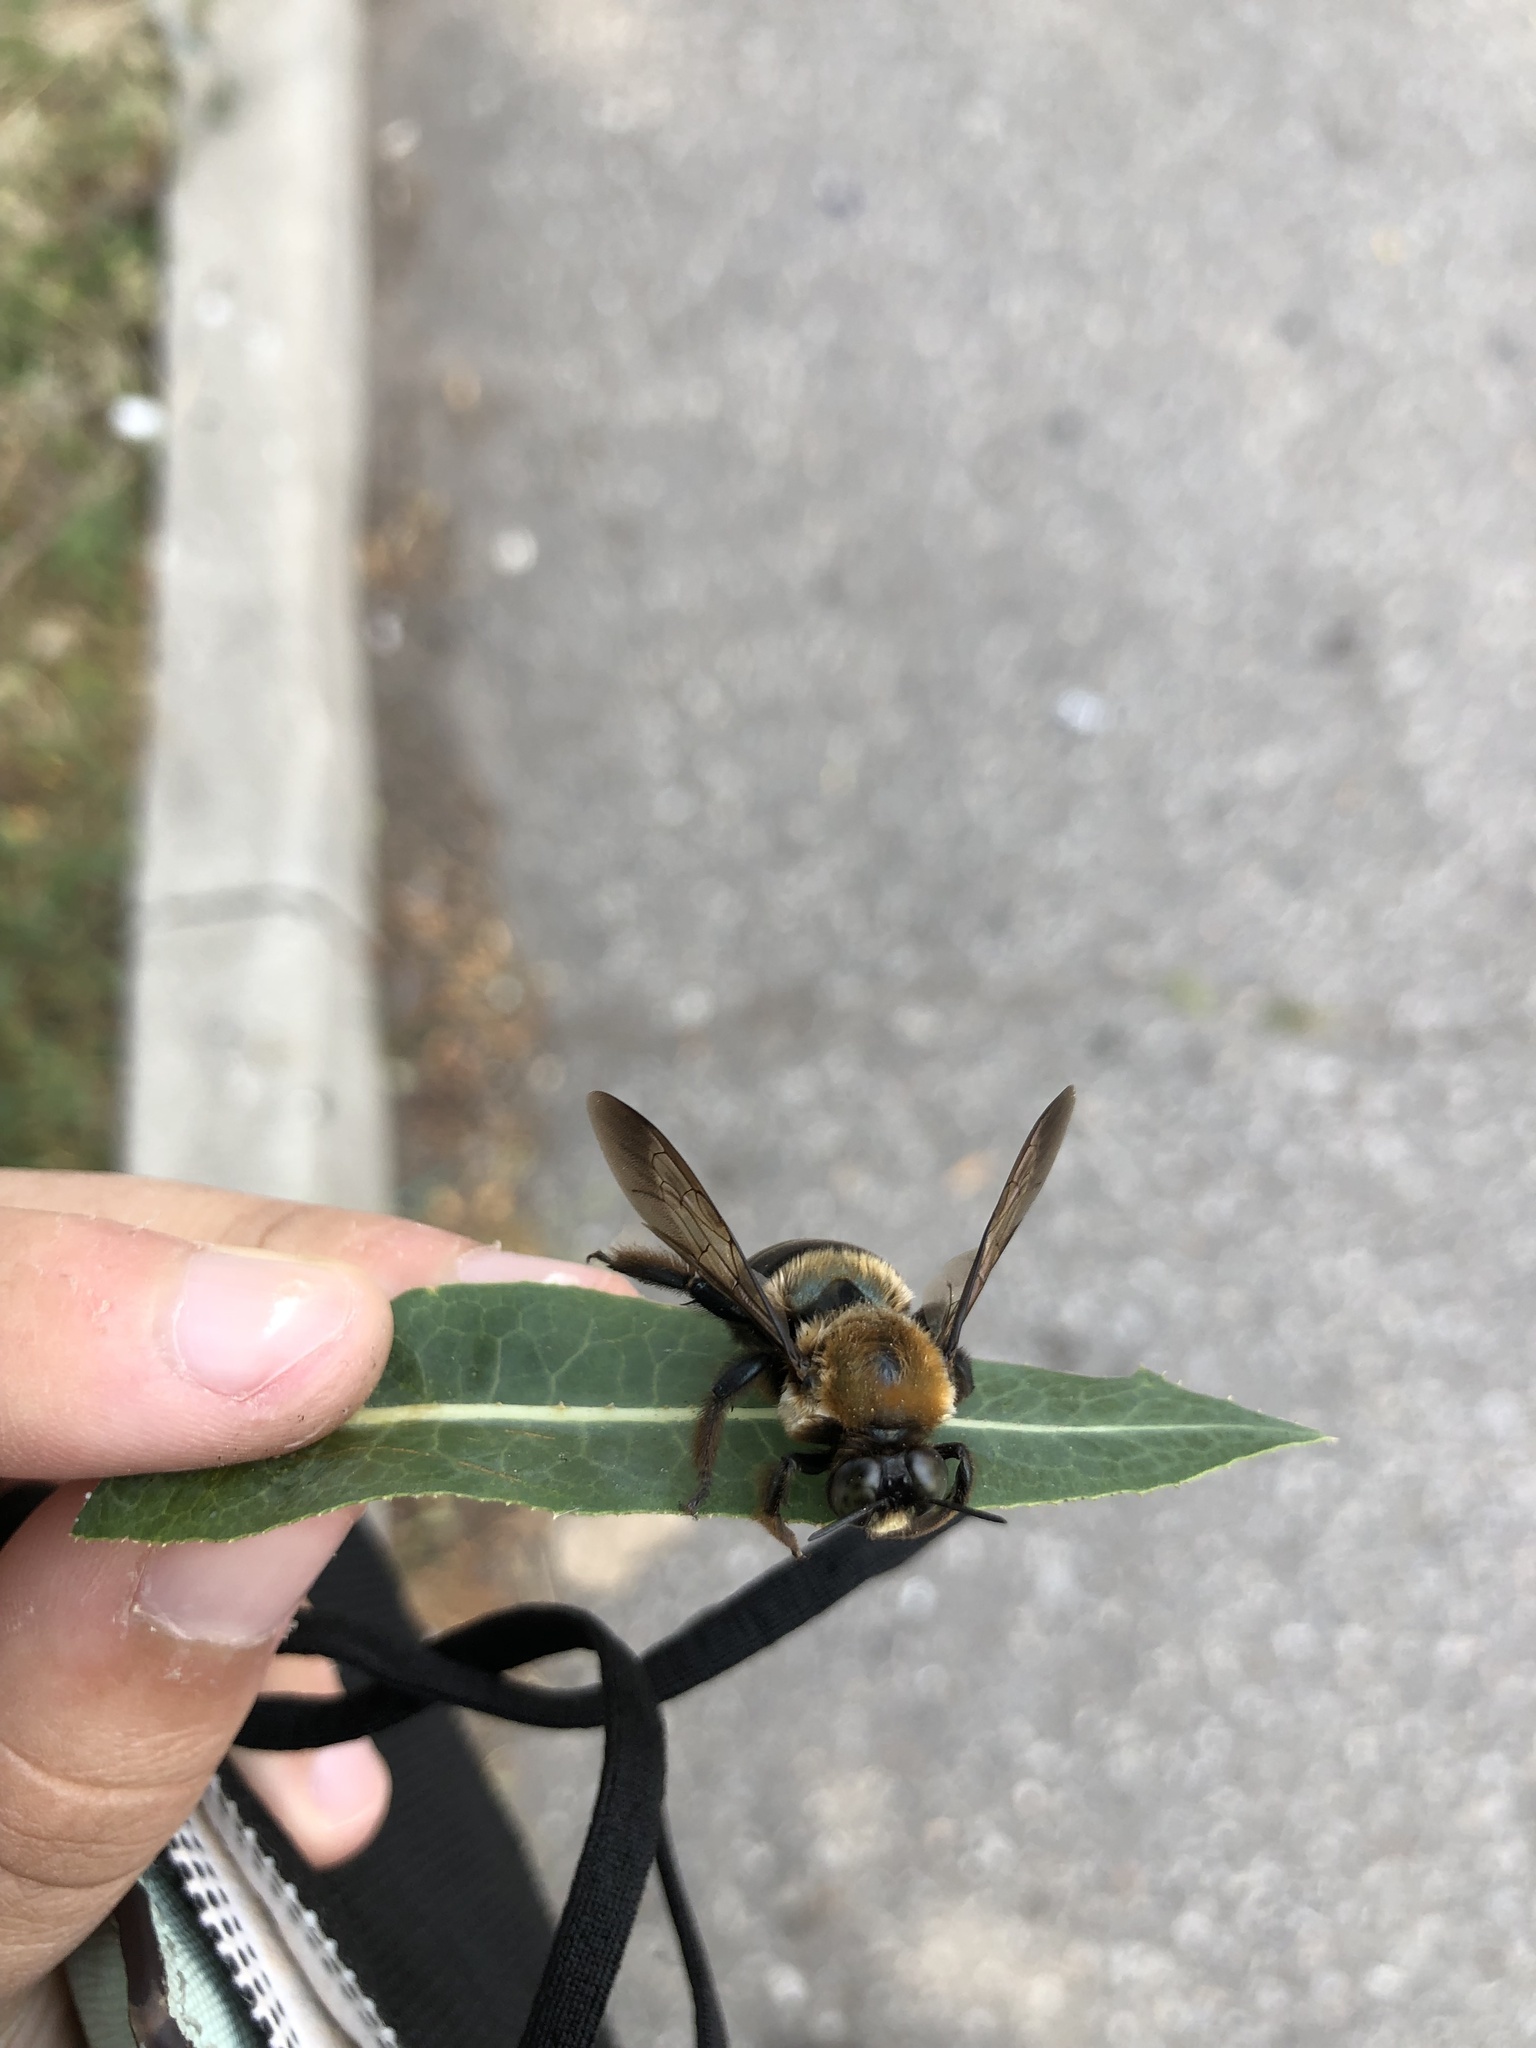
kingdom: Animalia
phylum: Arthropoda
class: Insecta
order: Hymenoptera
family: Apidae
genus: Xylocopa
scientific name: Xylocopa virginica
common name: Carpenter bee
